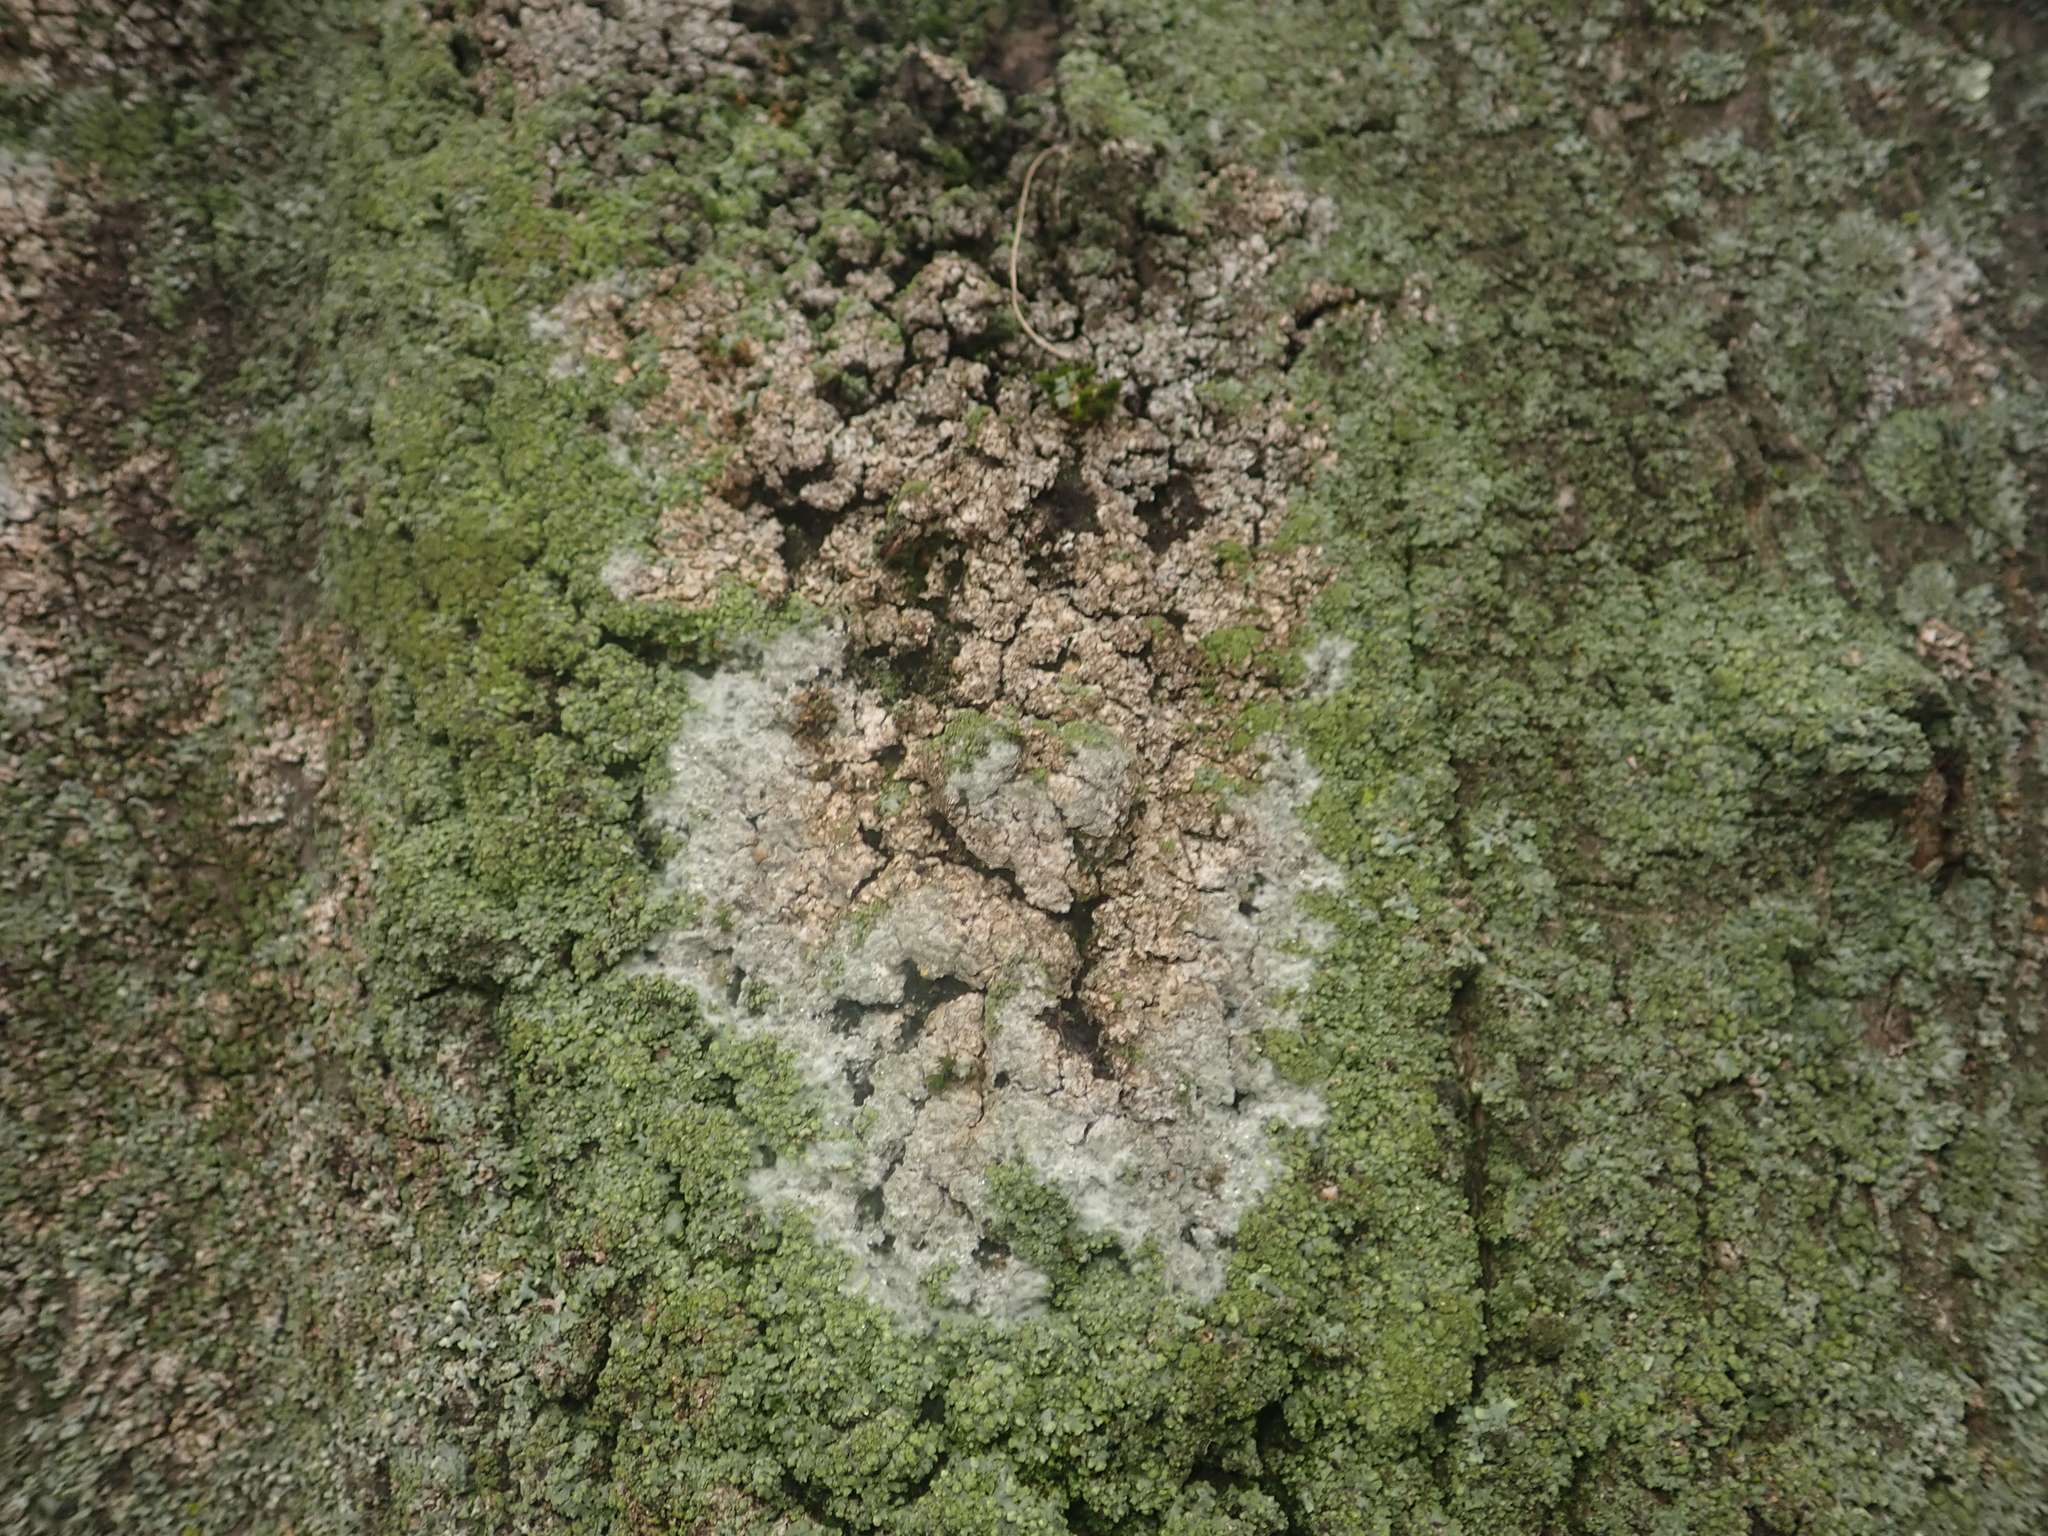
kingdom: Fungi
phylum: Basidiomycota
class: Agaricomycetes
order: Atheliales
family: Atheliaceae
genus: Athelia
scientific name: Athelia arachnoidea
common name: Candelabra duster
